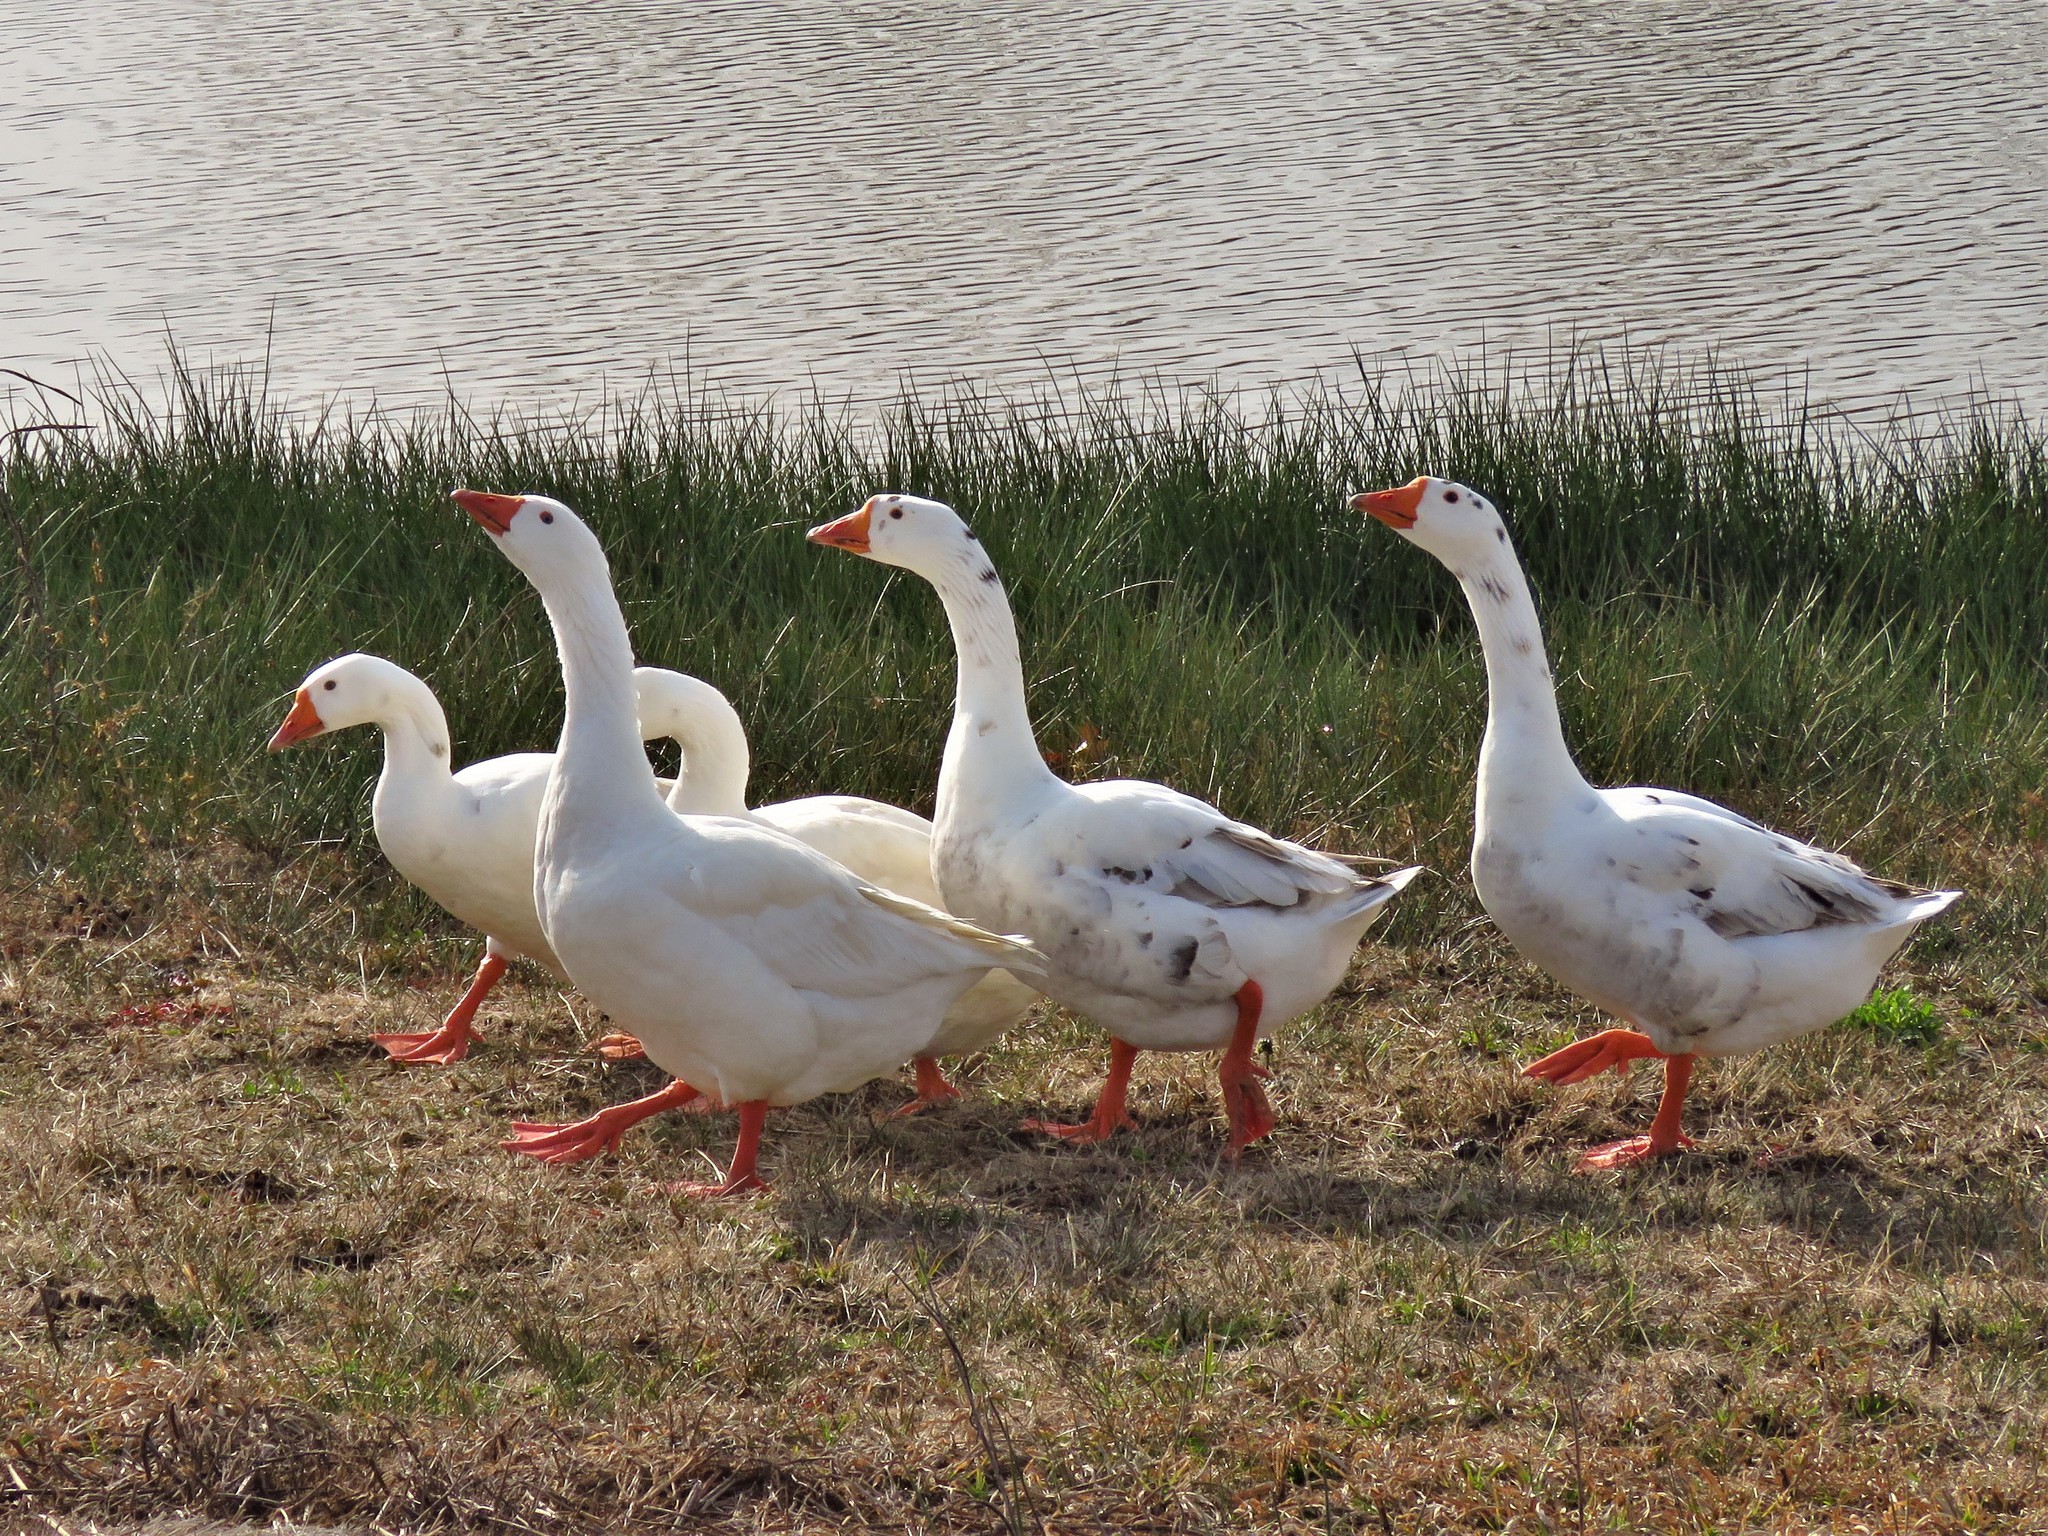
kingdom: Animalia
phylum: Chordata
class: Aves
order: Anseriformes
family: Anatidae
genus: Anser
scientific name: Anser
